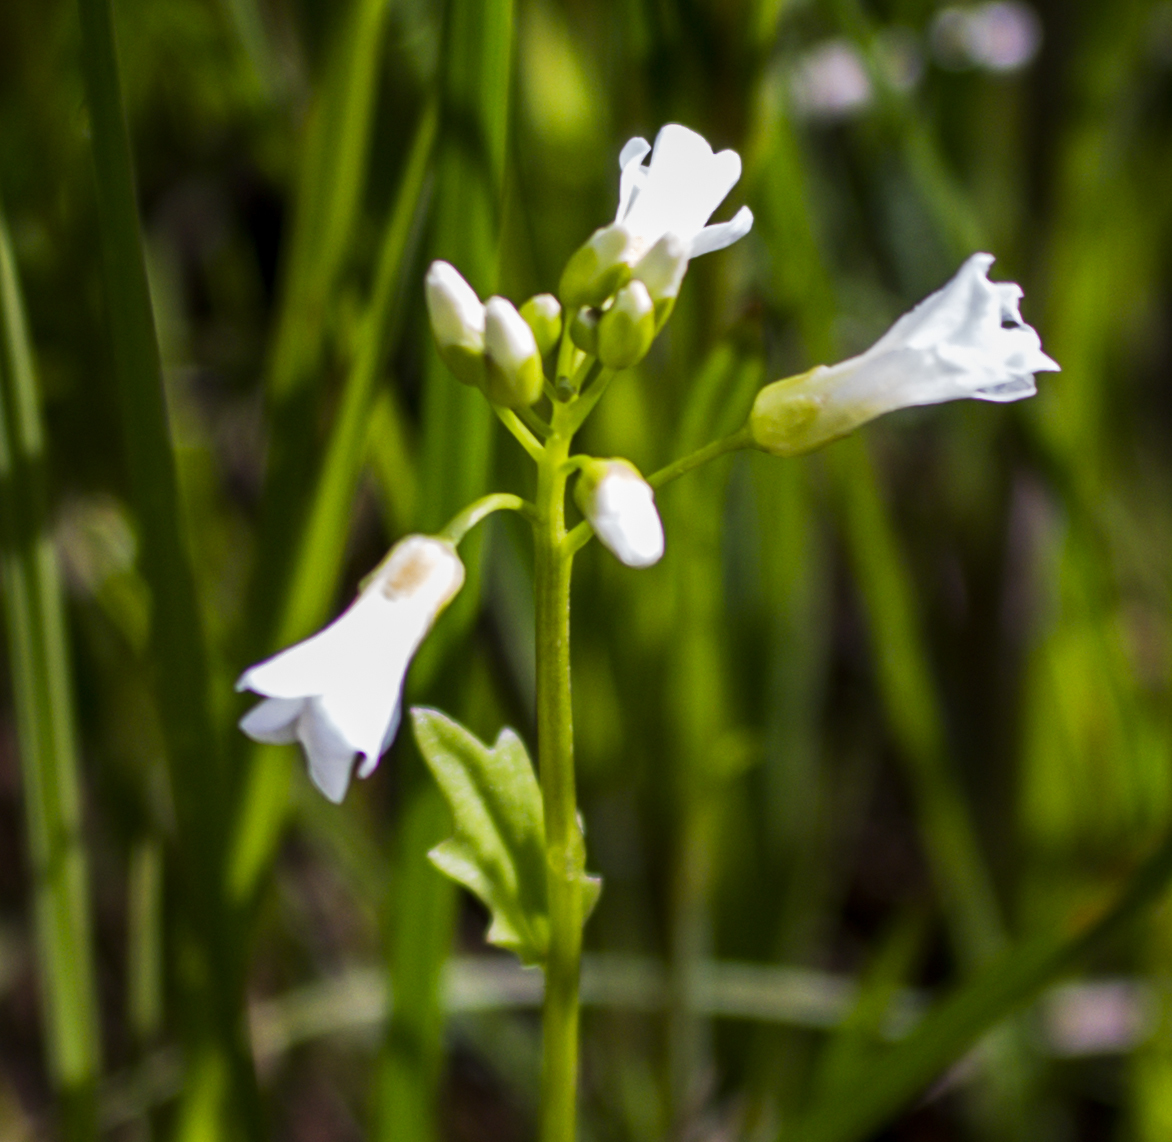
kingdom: Plantae
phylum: Tracheophyta
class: Magnoliopsida
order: Brassicales
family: Brassicaceae
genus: Cardamine
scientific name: Cardamine bulbosa
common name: Spring cress
